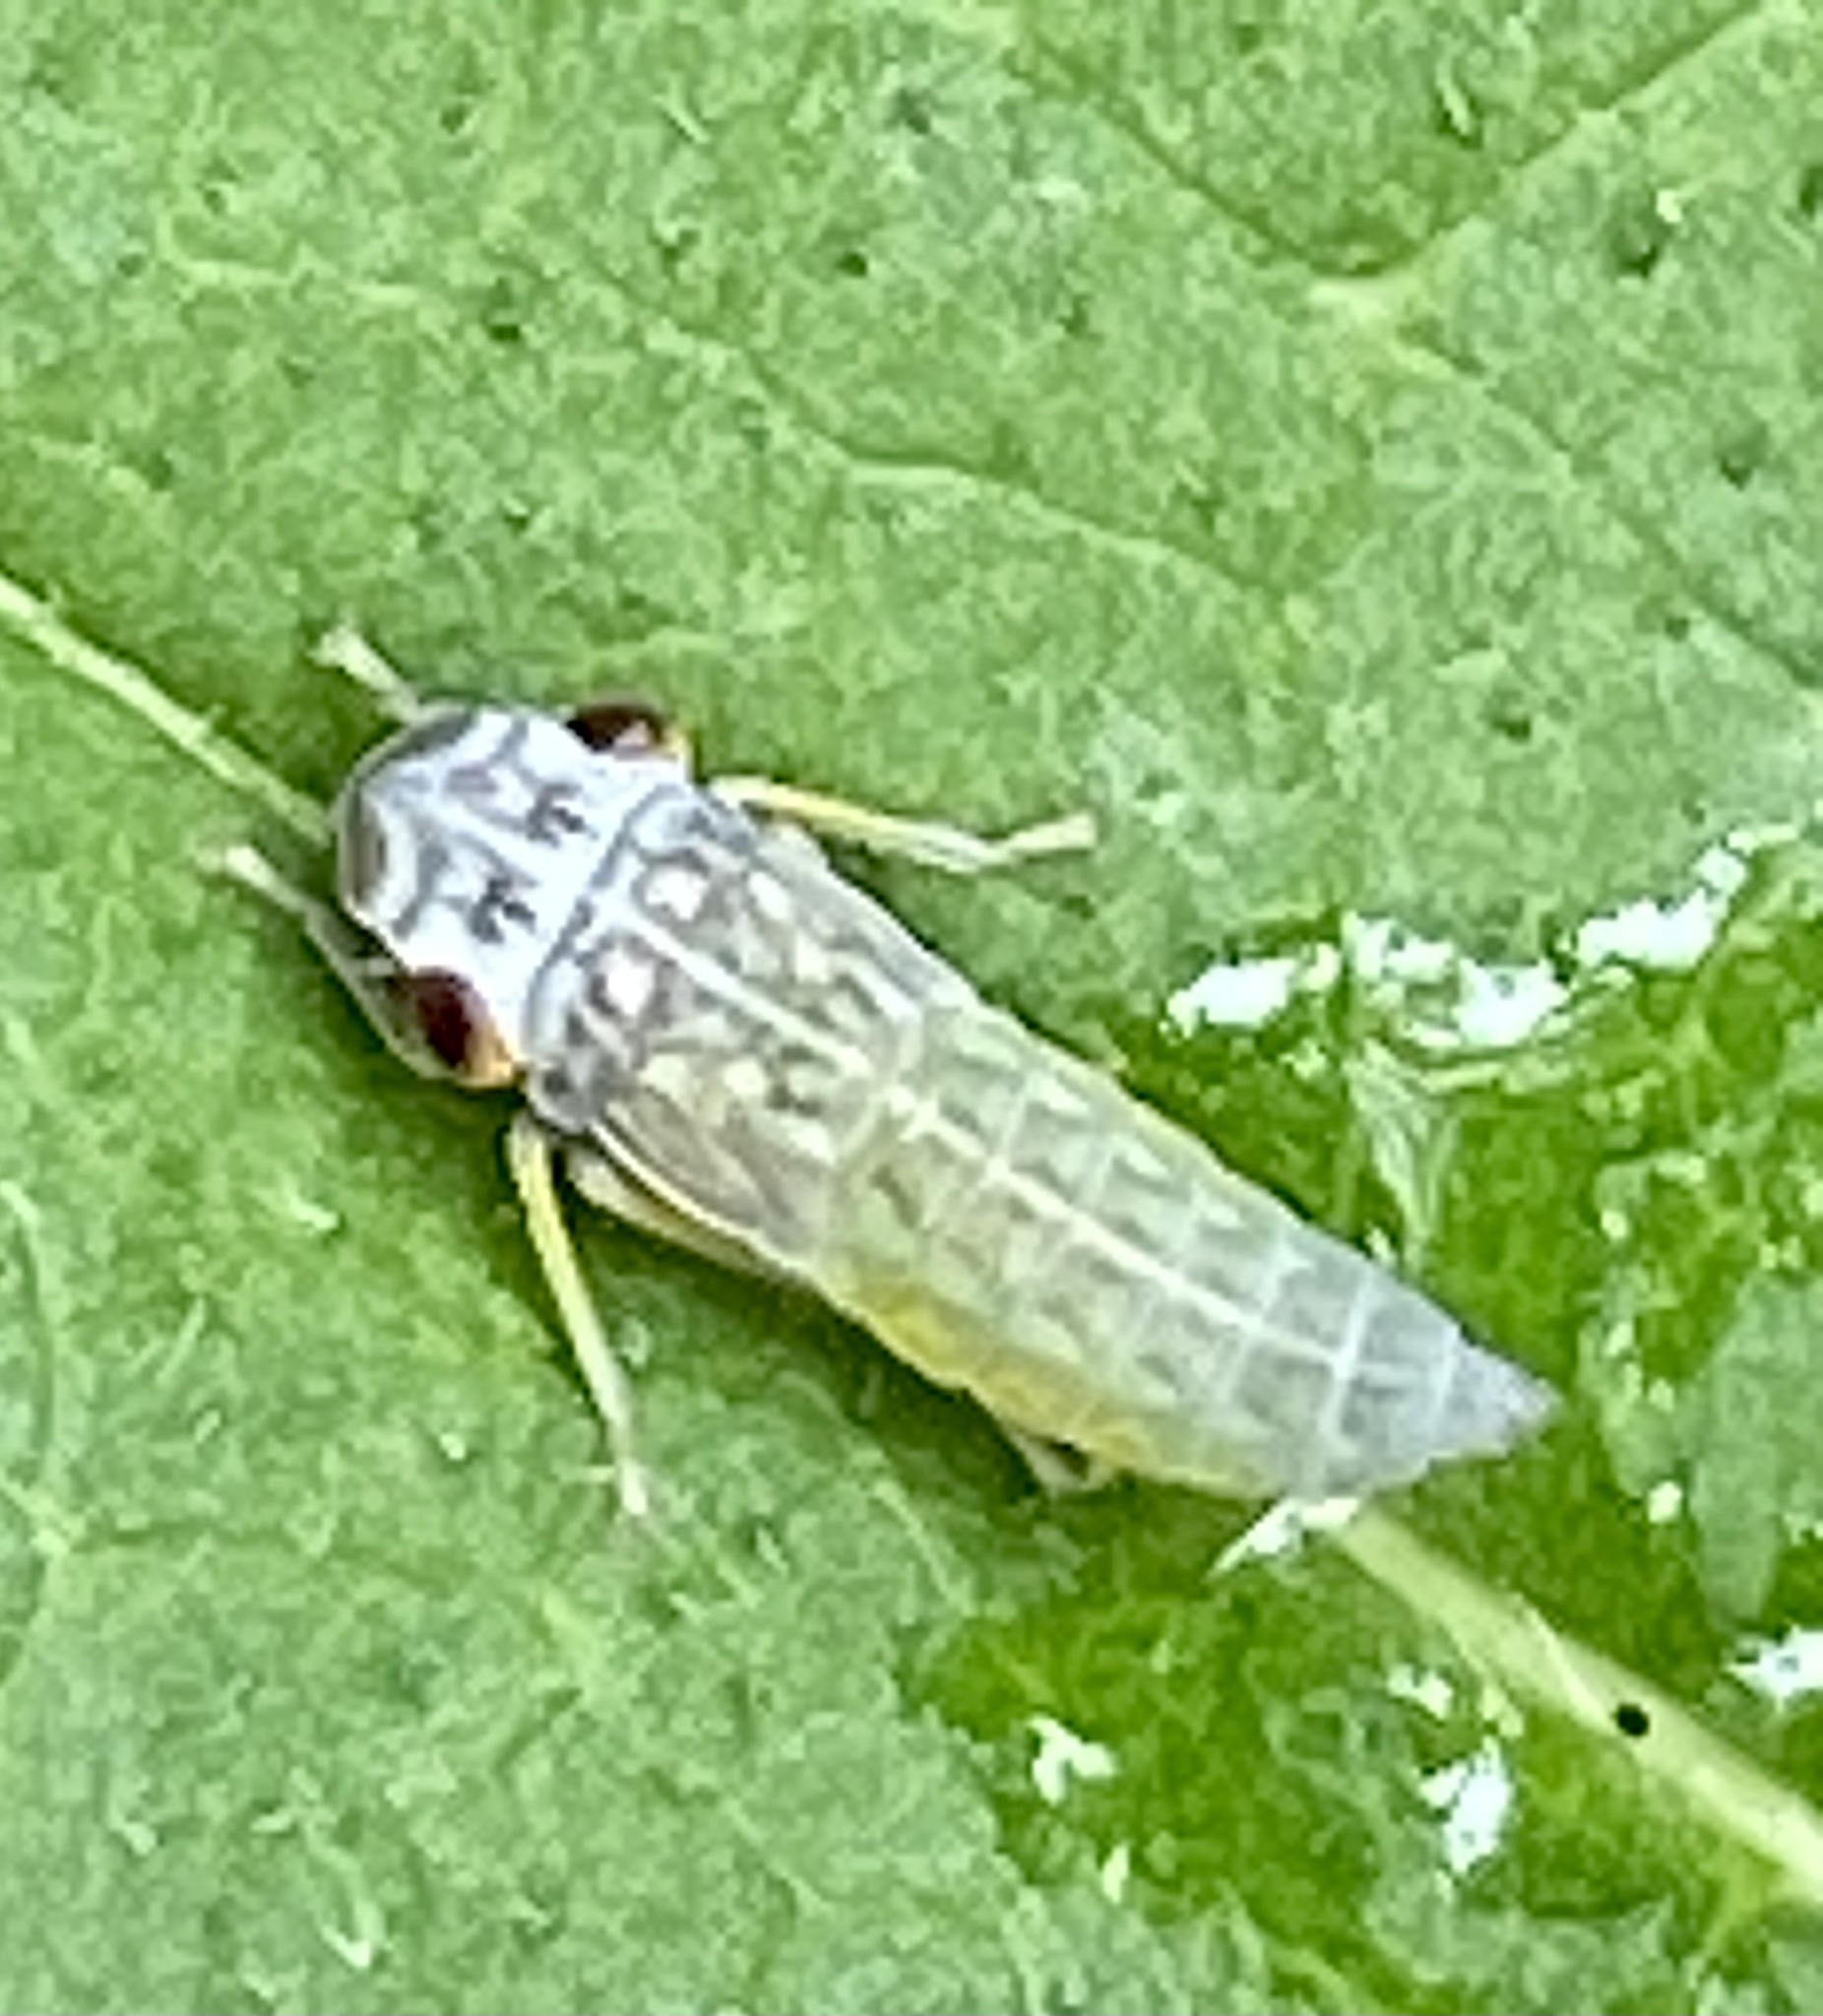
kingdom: Animalia
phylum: Arthropoda
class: Insecta
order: Hemiptera
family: Cicadellidae
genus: Oncometopia
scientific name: Oncometopia orbona
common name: Broad-headed sharpshooter
